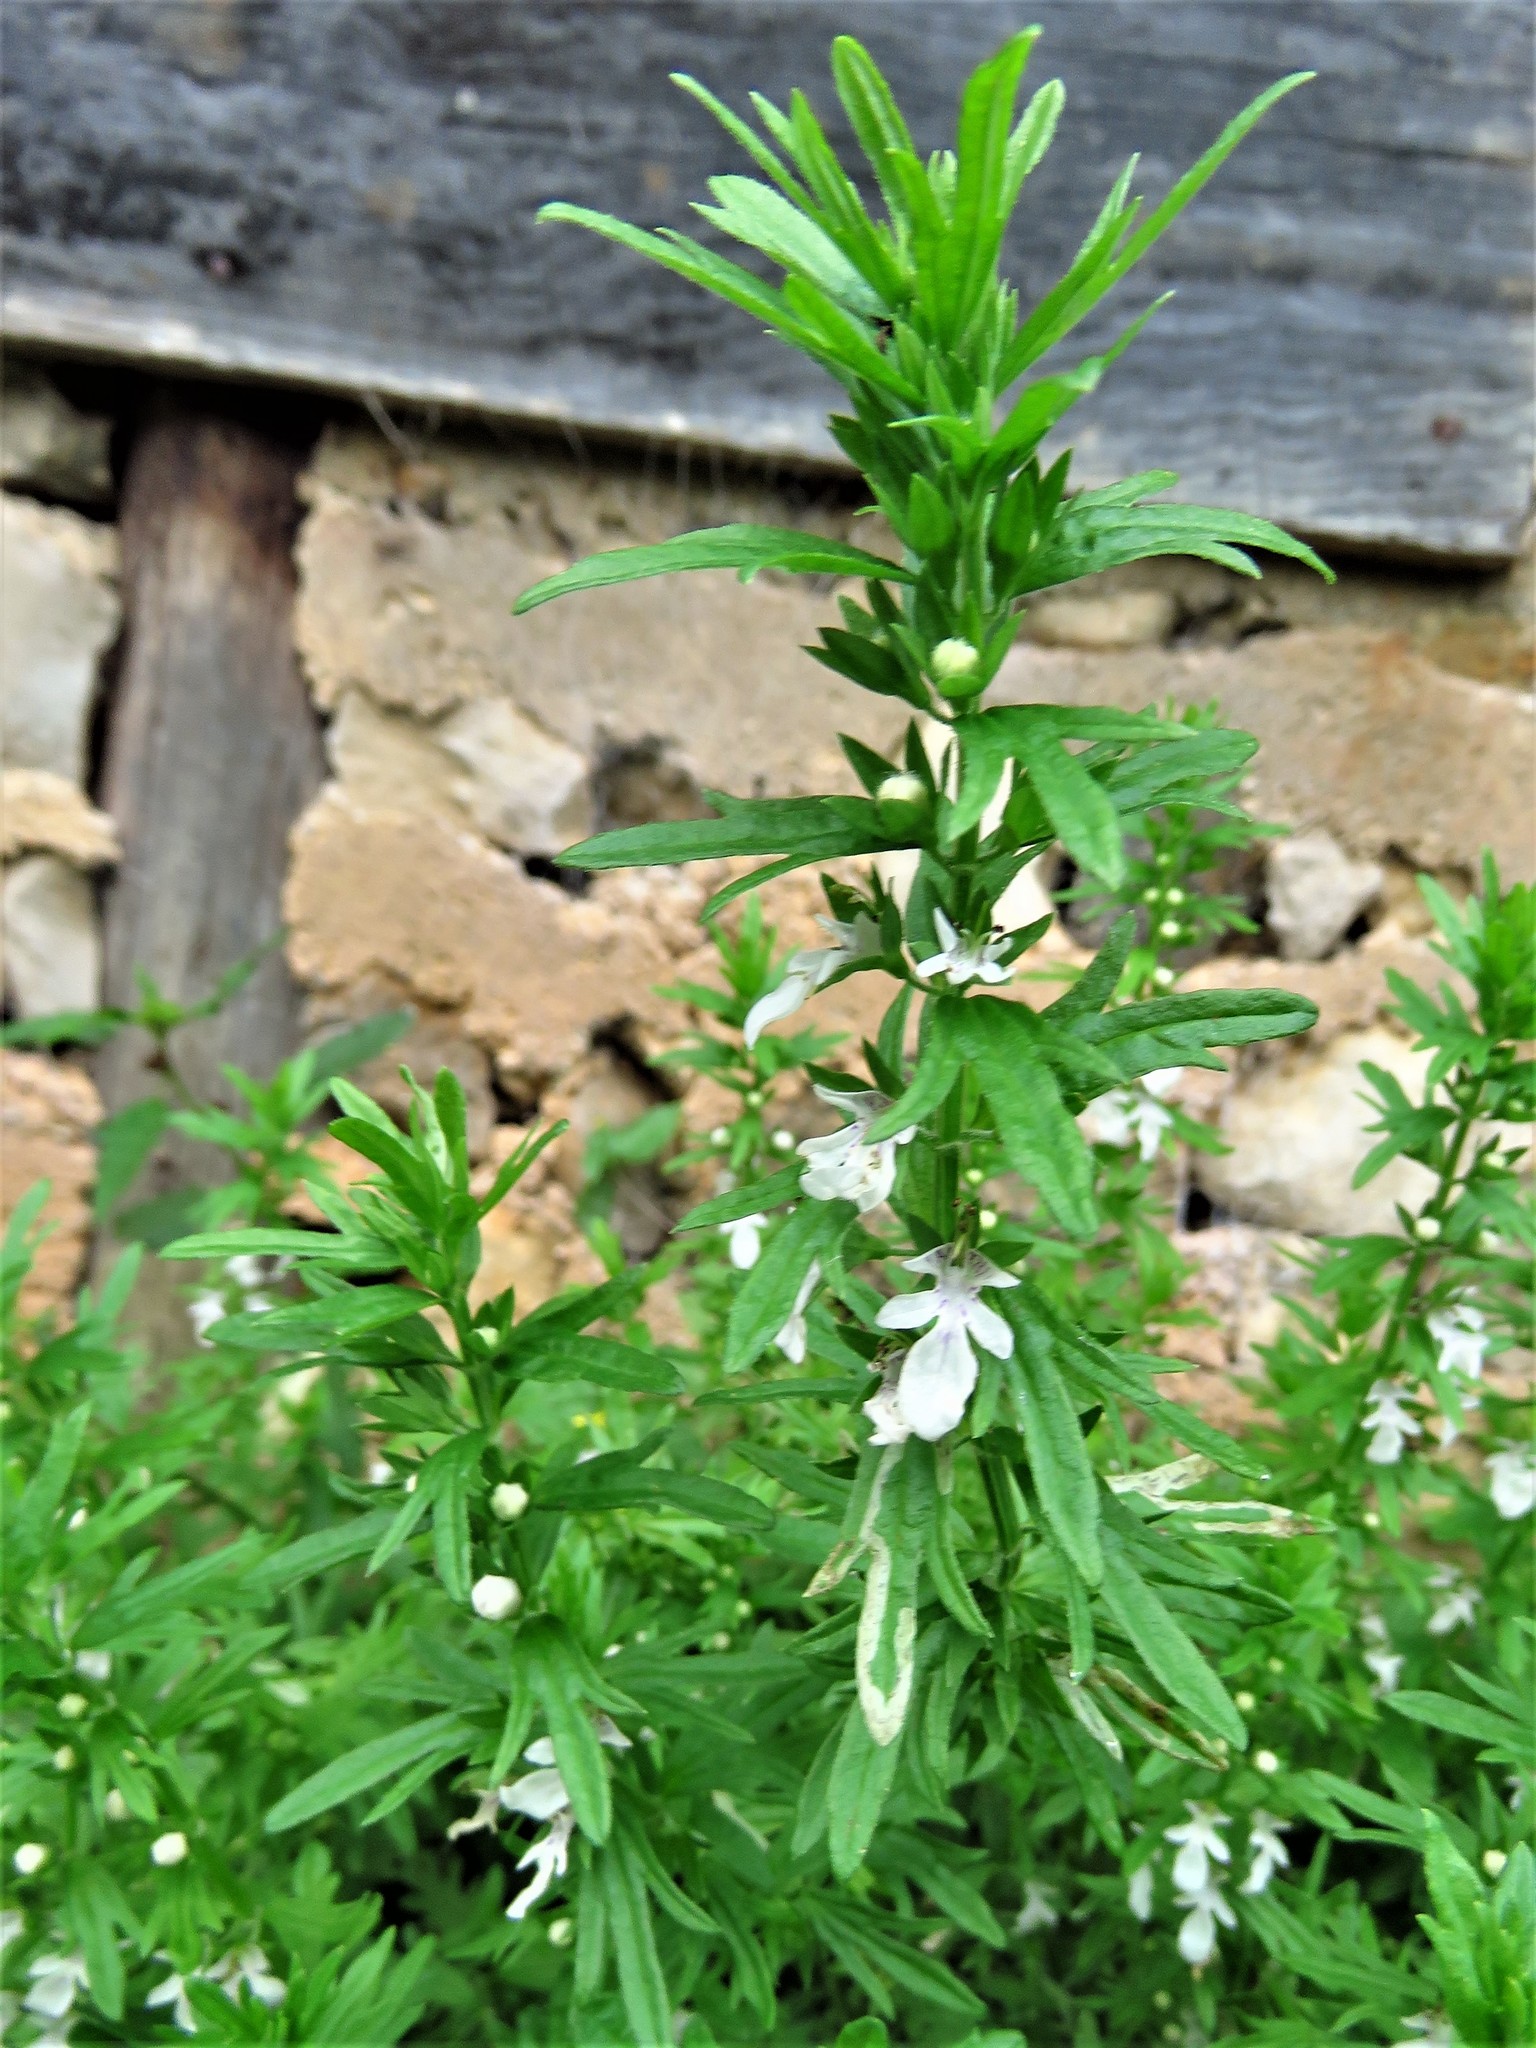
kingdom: Plantae
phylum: Tracheophyta
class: Magnoliopsida
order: Lamiales
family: Lamiaceae
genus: Teucrium
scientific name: Teucrium cubense
